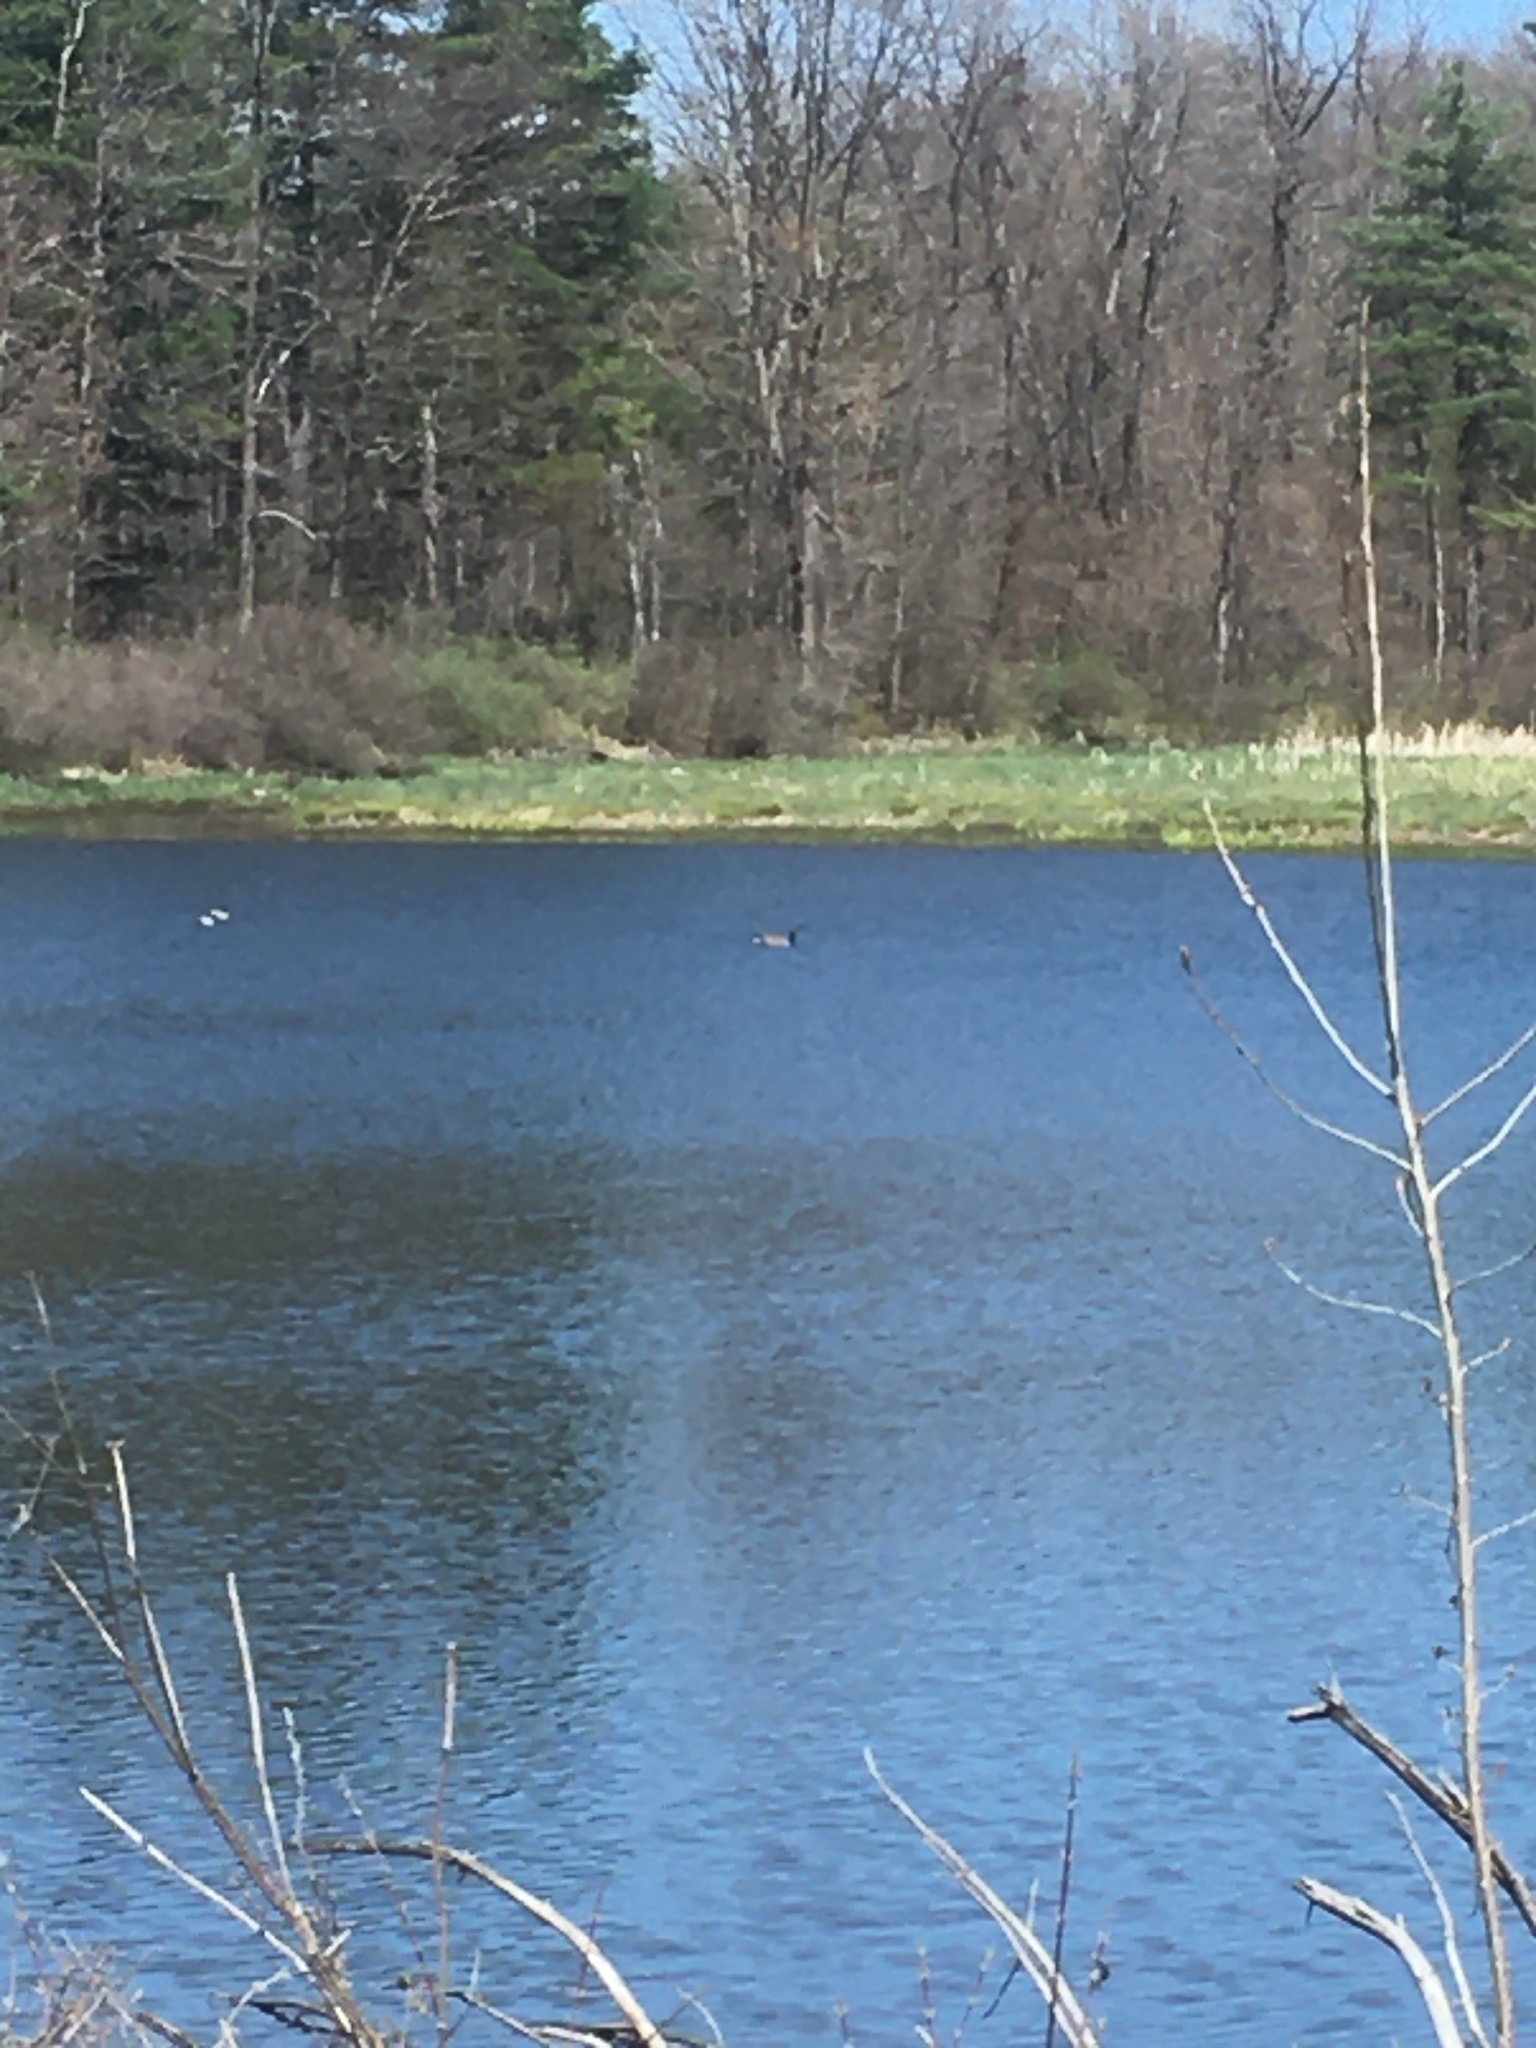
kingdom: Animalia
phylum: Chordata
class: Aves
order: Anseriformes
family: Anatidae
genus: Branta
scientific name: Branta canadensis
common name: Canada goose
